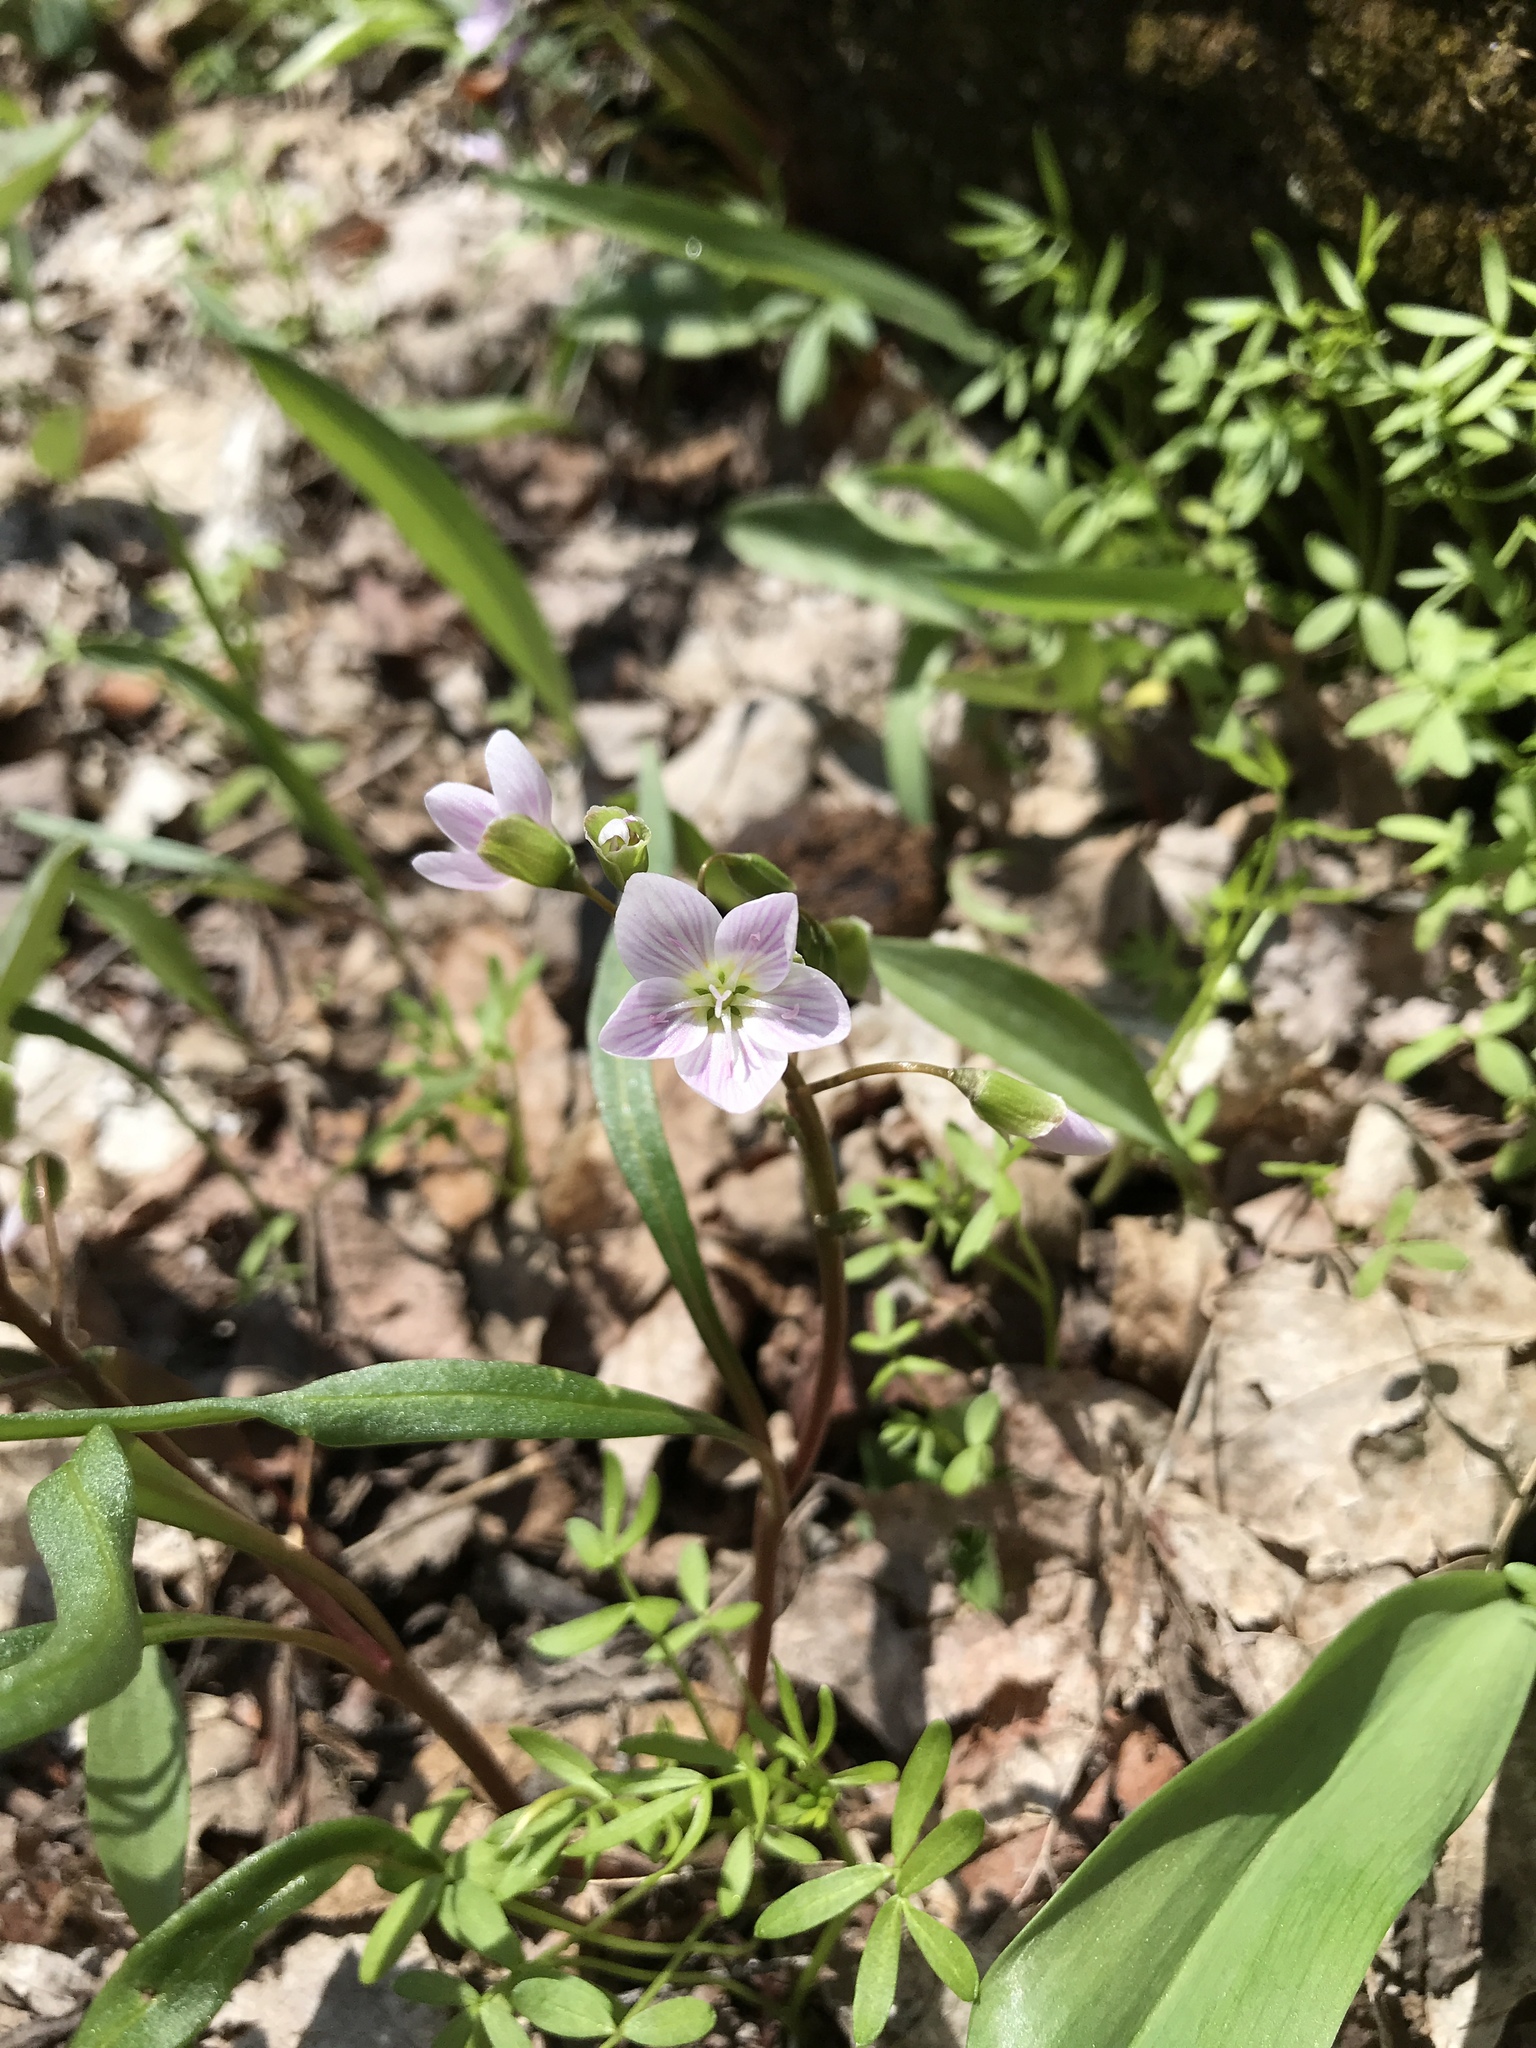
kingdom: Plantae
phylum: Tracheophyta
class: Magnoliopsida
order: Caryophyllales
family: Montiaceae
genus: Claytonia
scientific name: Claytonia virginica
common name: Virginia springbeauty
